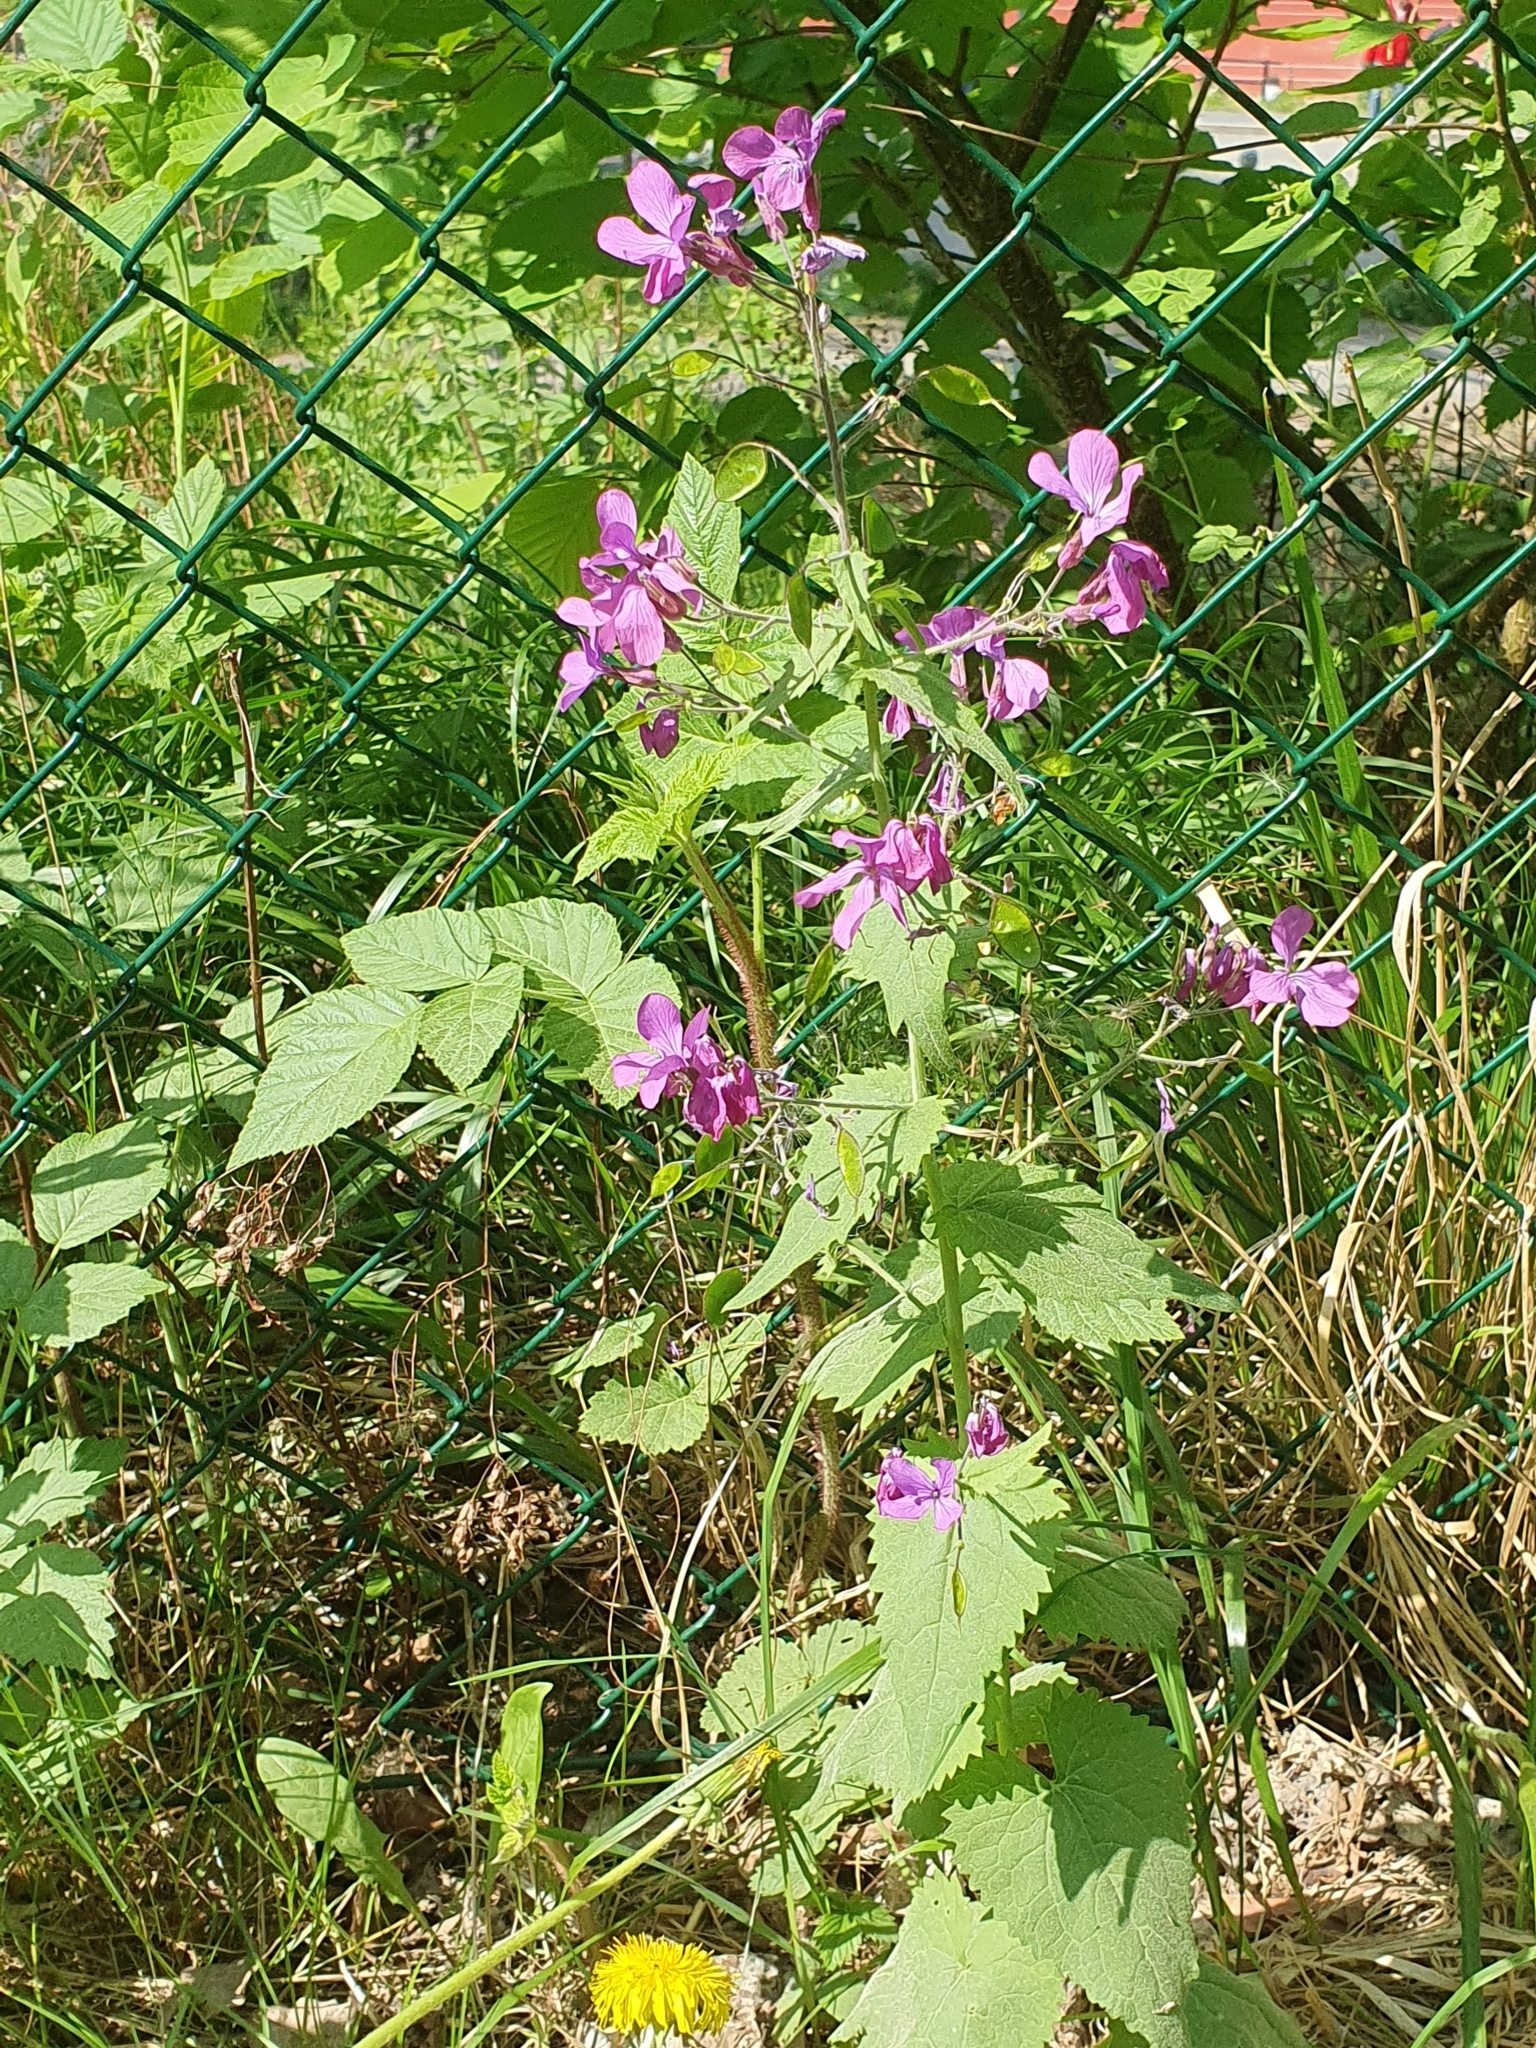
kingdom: Plantae
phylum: Tracheophyta
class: Magnoliopsida
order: Brassicales
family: Brassicaceae
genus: Lunaria
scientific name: Lunaria annua
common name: Honesty
